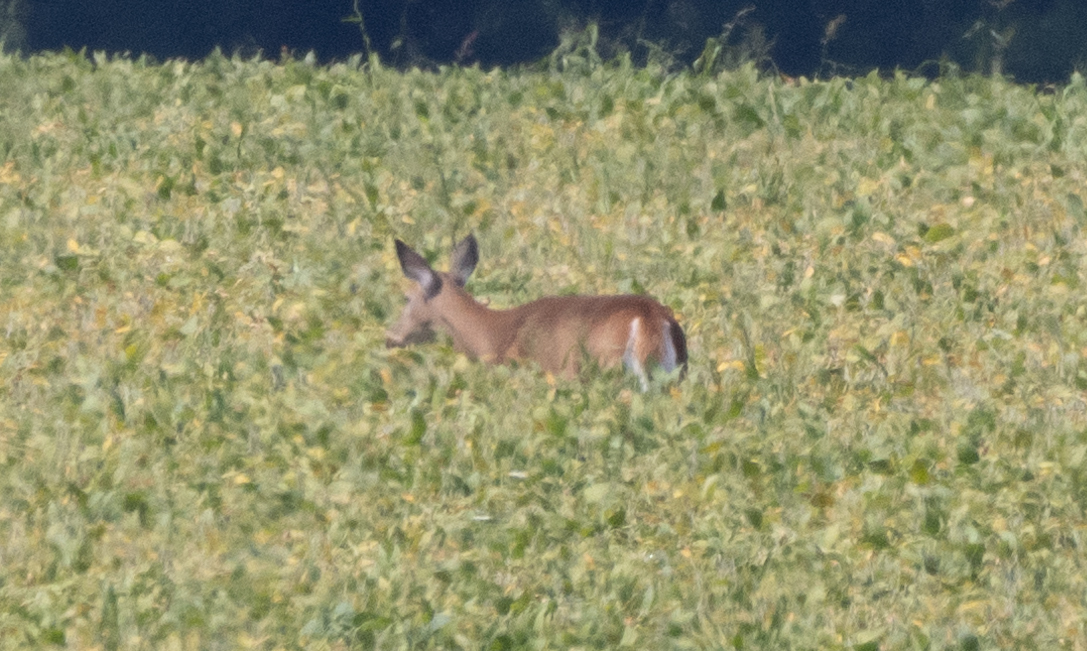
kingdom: Animalia
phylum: Chordata
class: Mammalia
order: Artiodactyla
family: Cervidae
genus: Odocoileus
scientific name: Odocoileus virginianus
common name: White-tailed deer
